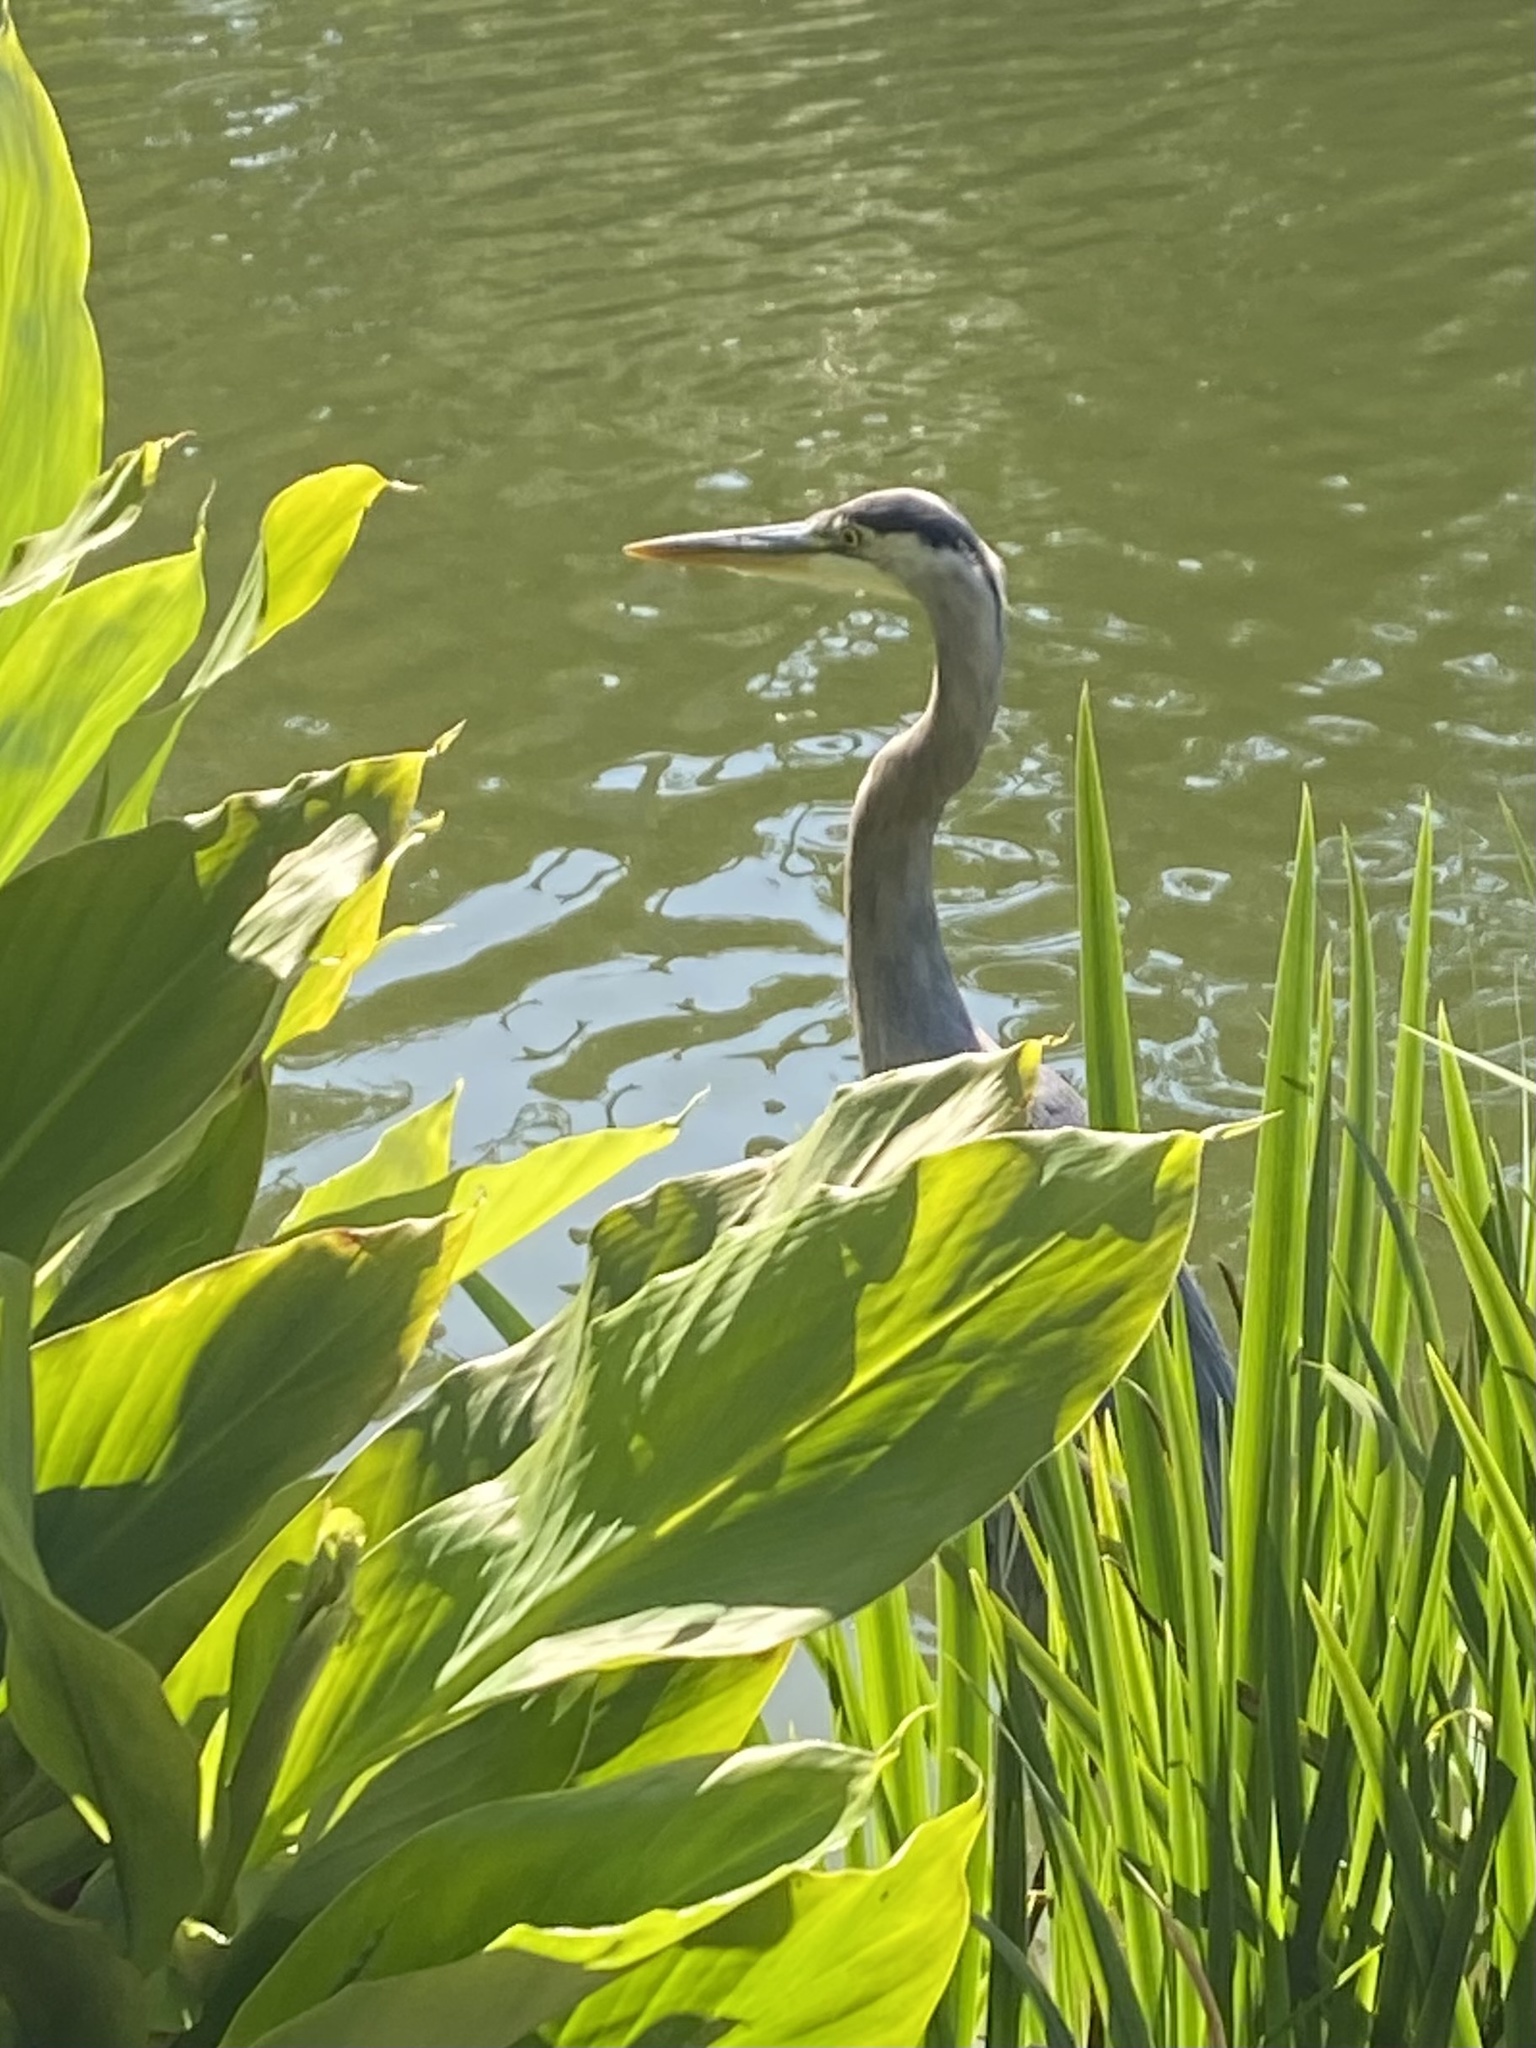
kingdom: Animalia
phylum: Chordata
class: Aves
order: Pelecaniformes
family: Ardeidae
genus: Ardea
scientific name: Ardea herodias
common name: Great blue heron
